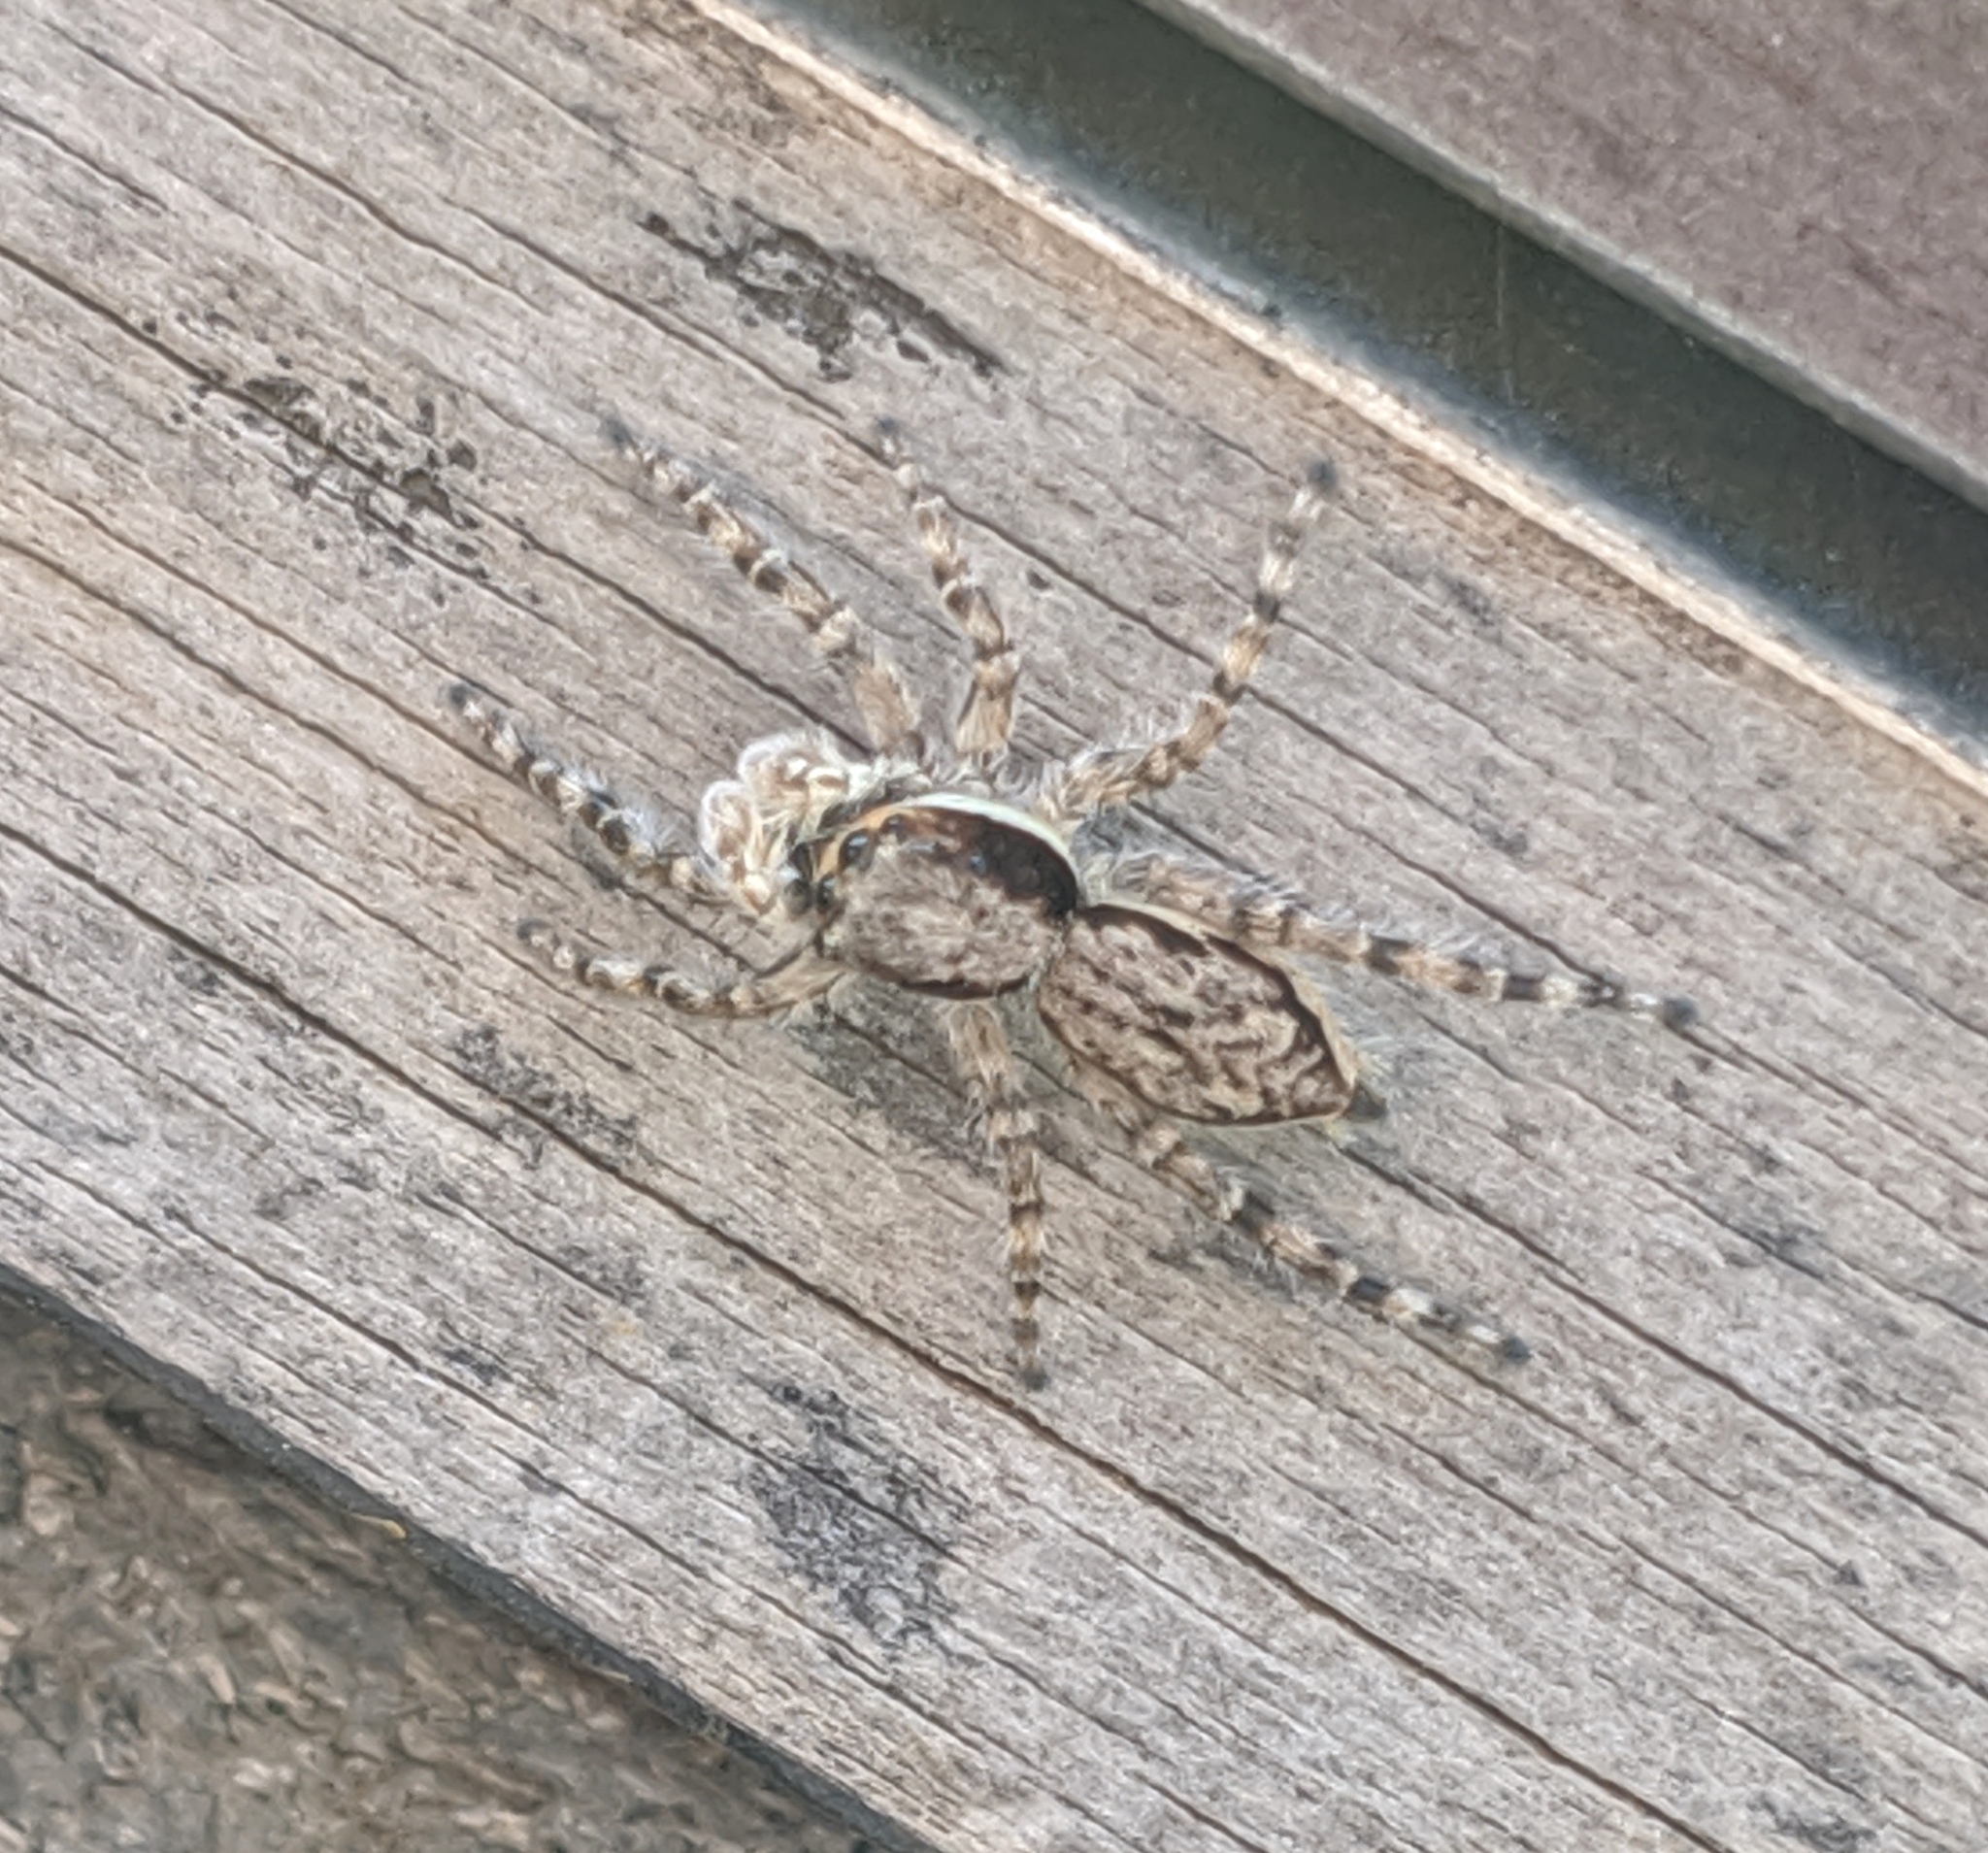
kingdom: Animalia
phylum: Arthropoda
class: Arachnida
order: Araneae
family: Salticidae
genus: Menemerus
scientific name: Menemerus bivittatus
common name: Gray wall jumper
